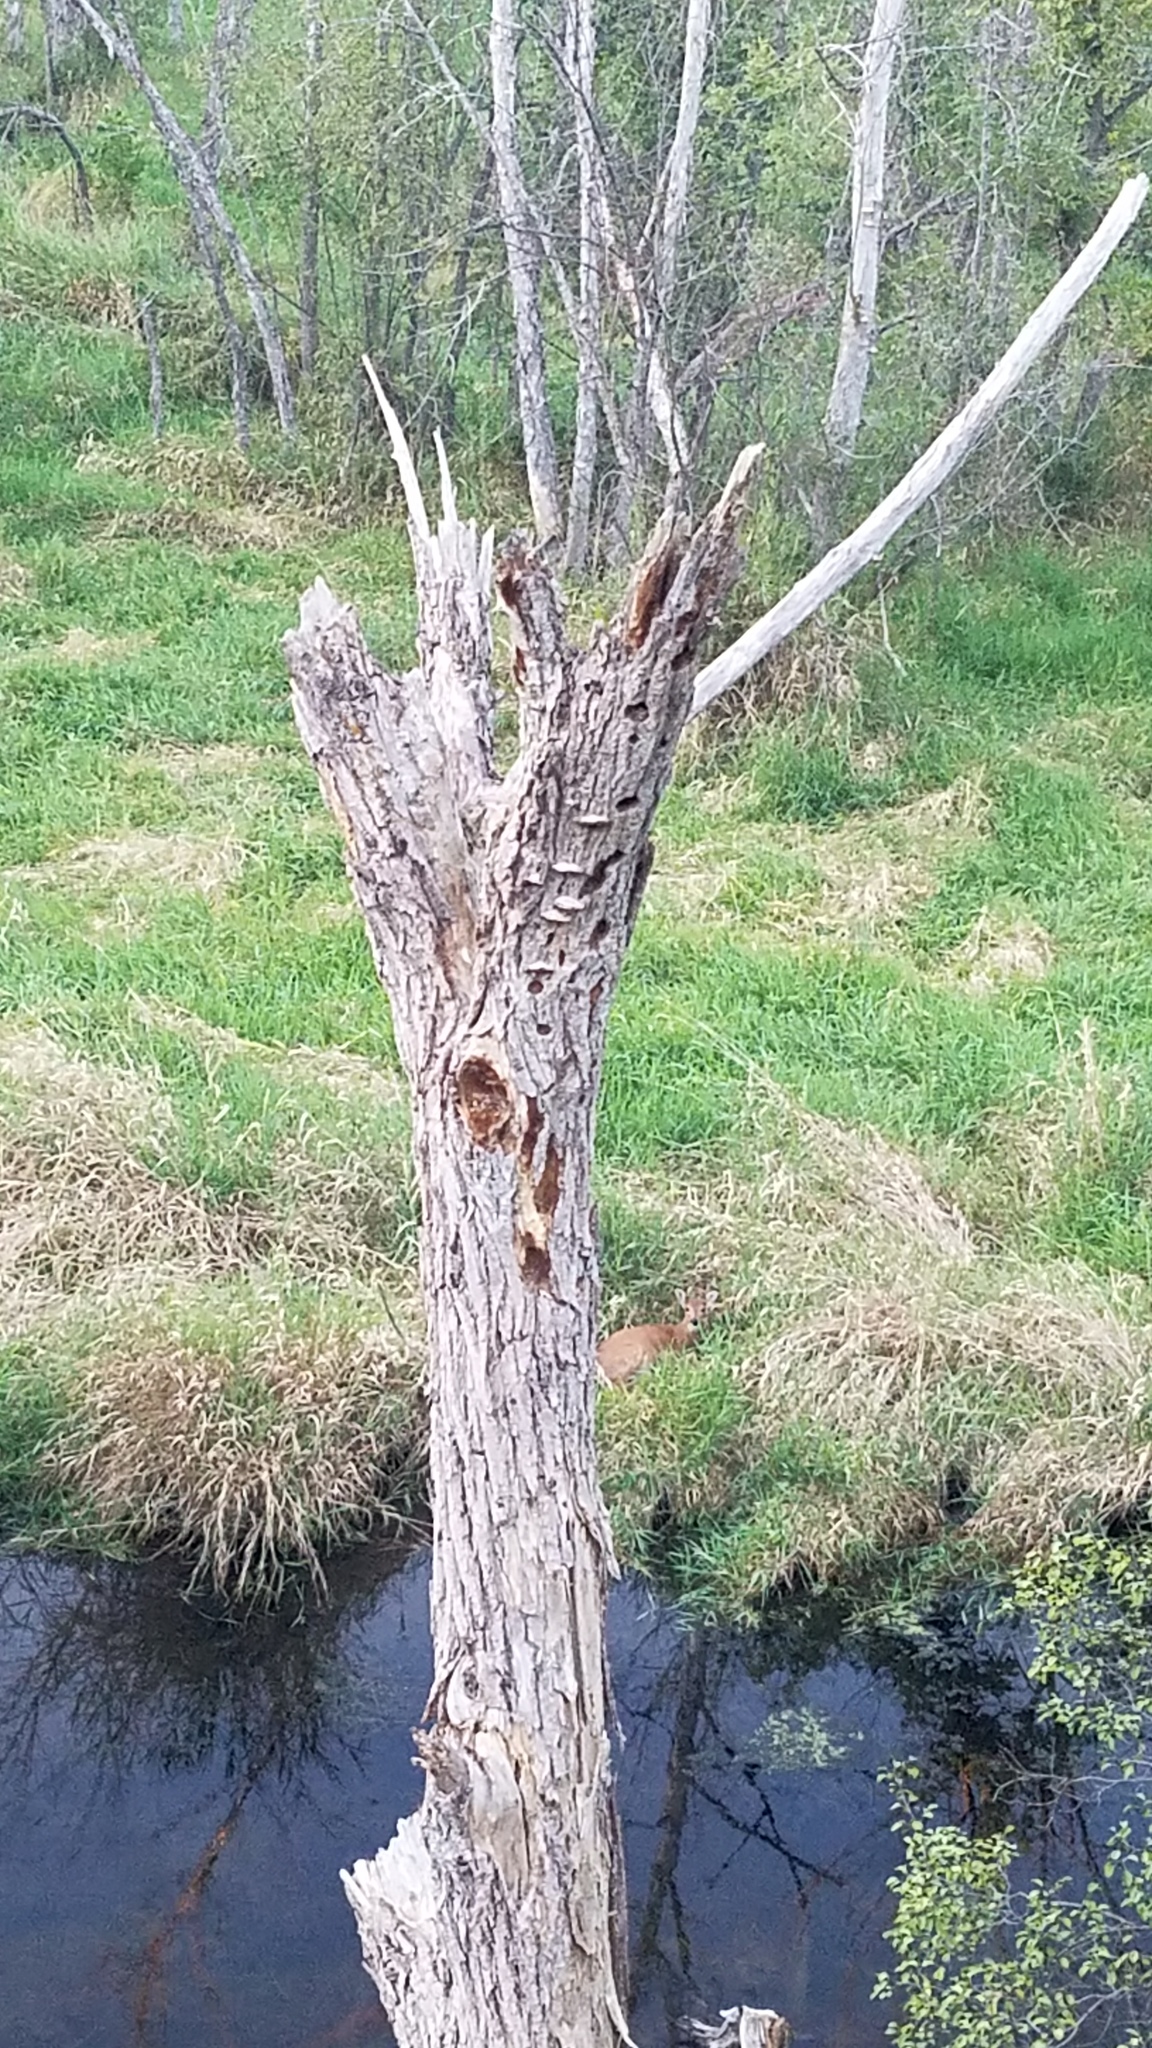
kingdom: Animalia
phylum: Chordata
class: Aves
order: Piciformes
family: Picidae
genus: Dryocopus
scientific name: Dryocopus pileatus
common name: Pileated woodpecker
